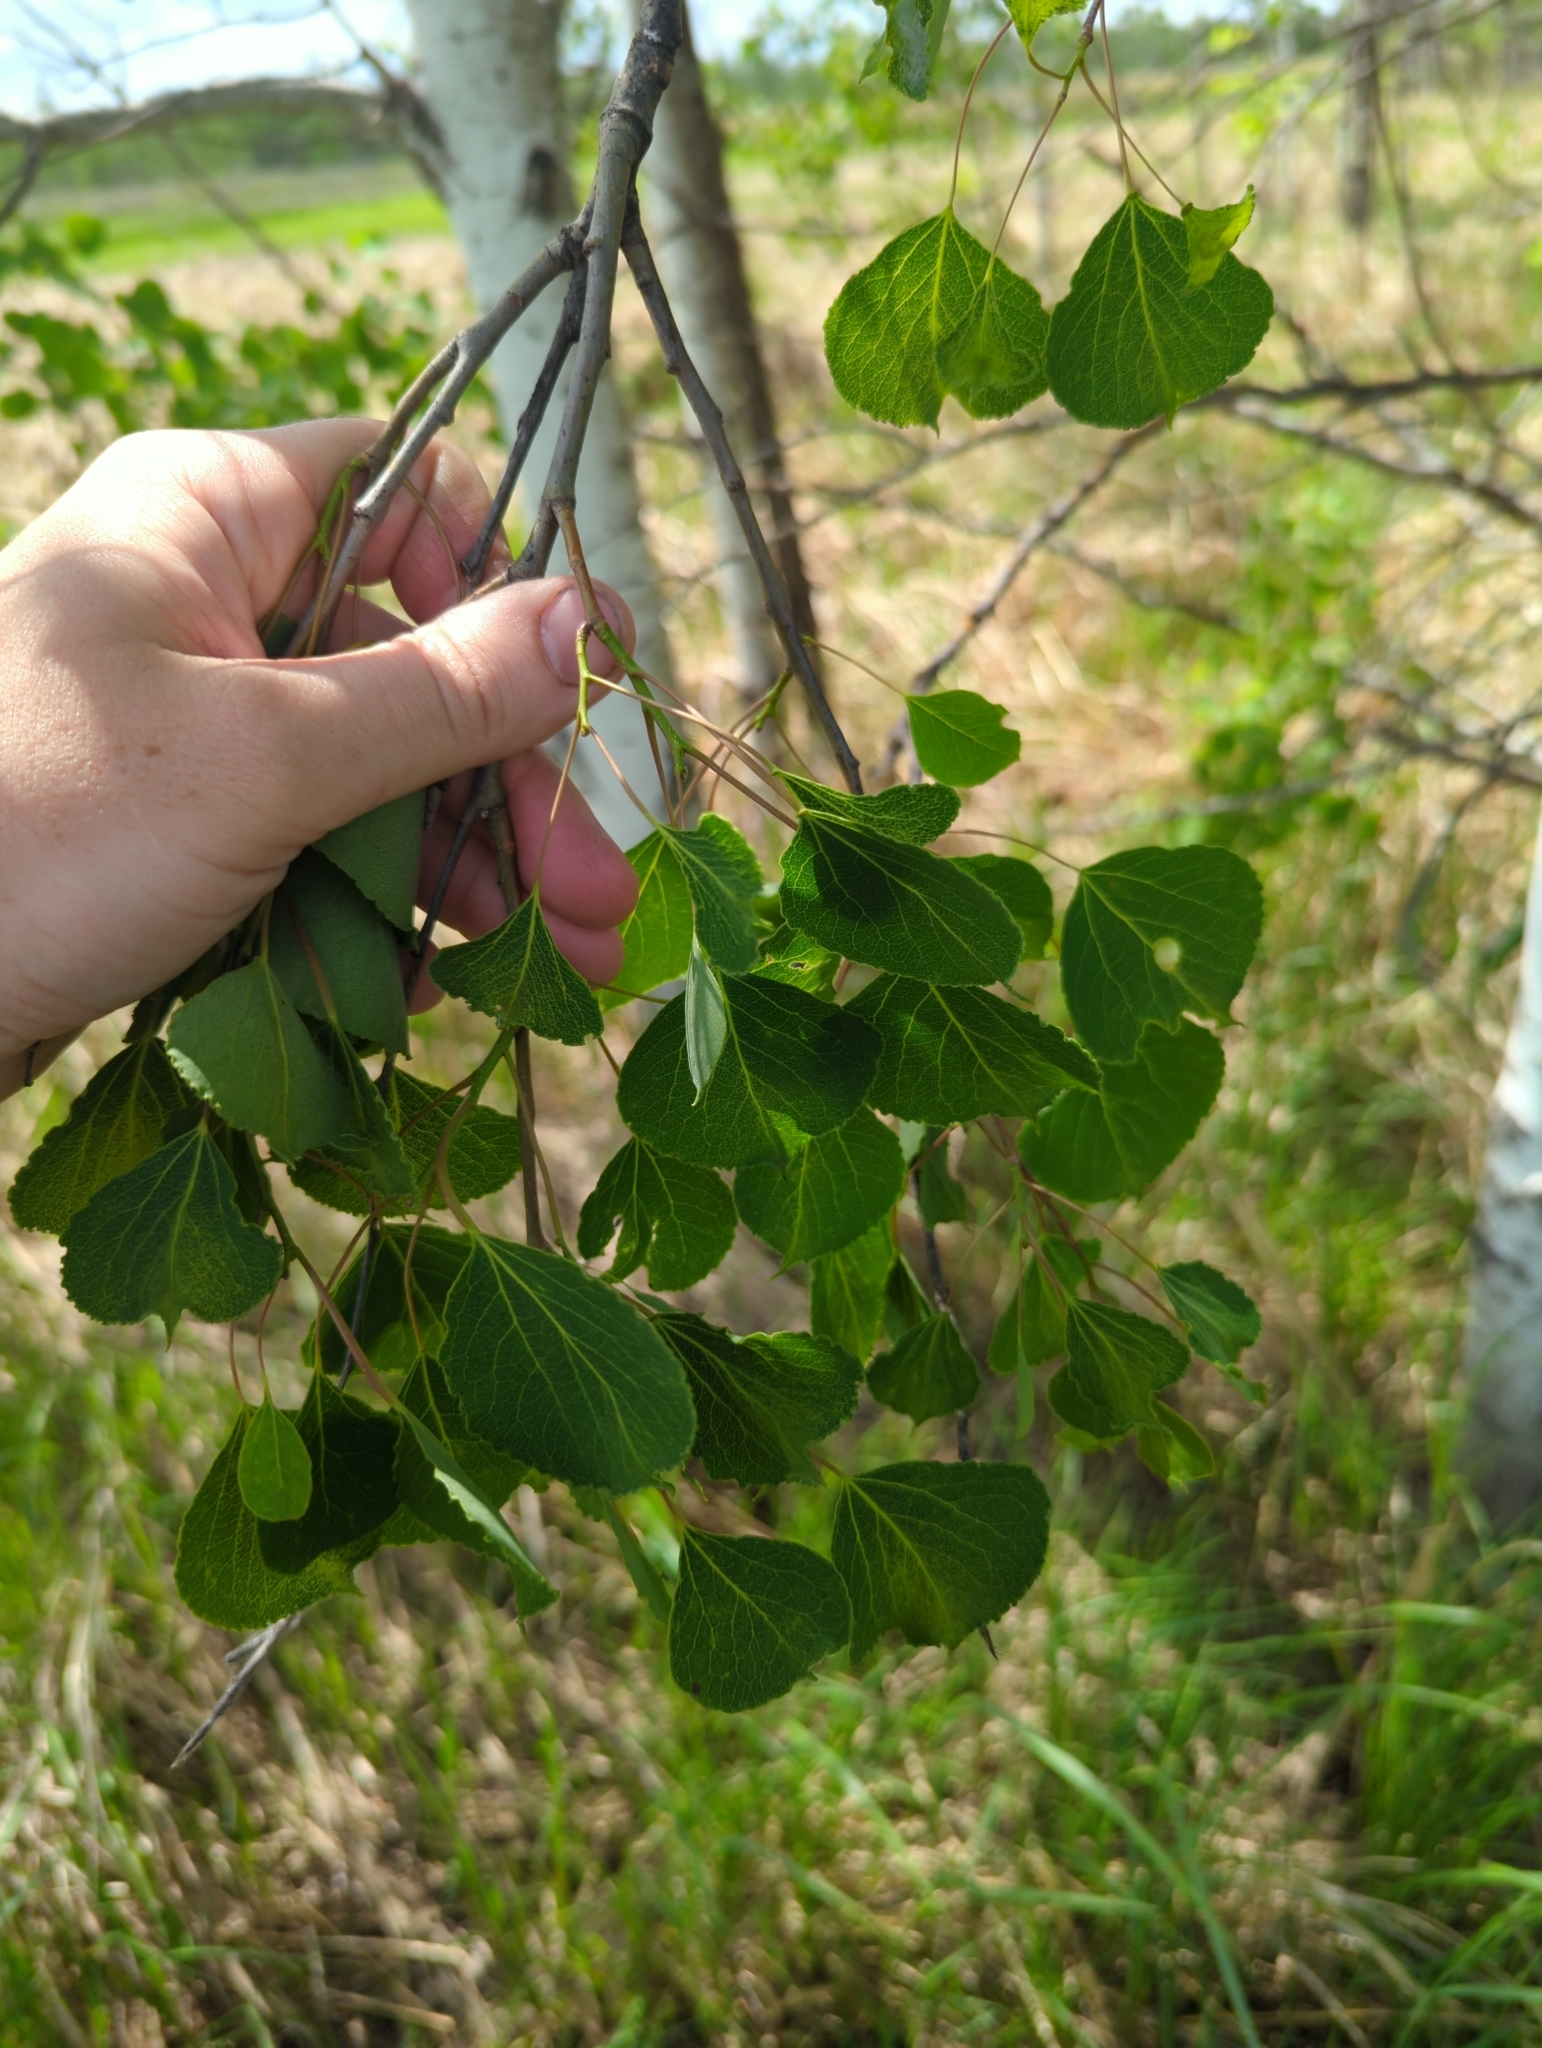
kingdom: Plantae
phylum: Tracheophyta
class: Magnoliopsida
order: Malpighiales
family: Salicaceae
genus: Populus
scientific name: Populus tremuloides
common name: Quaking aspen
